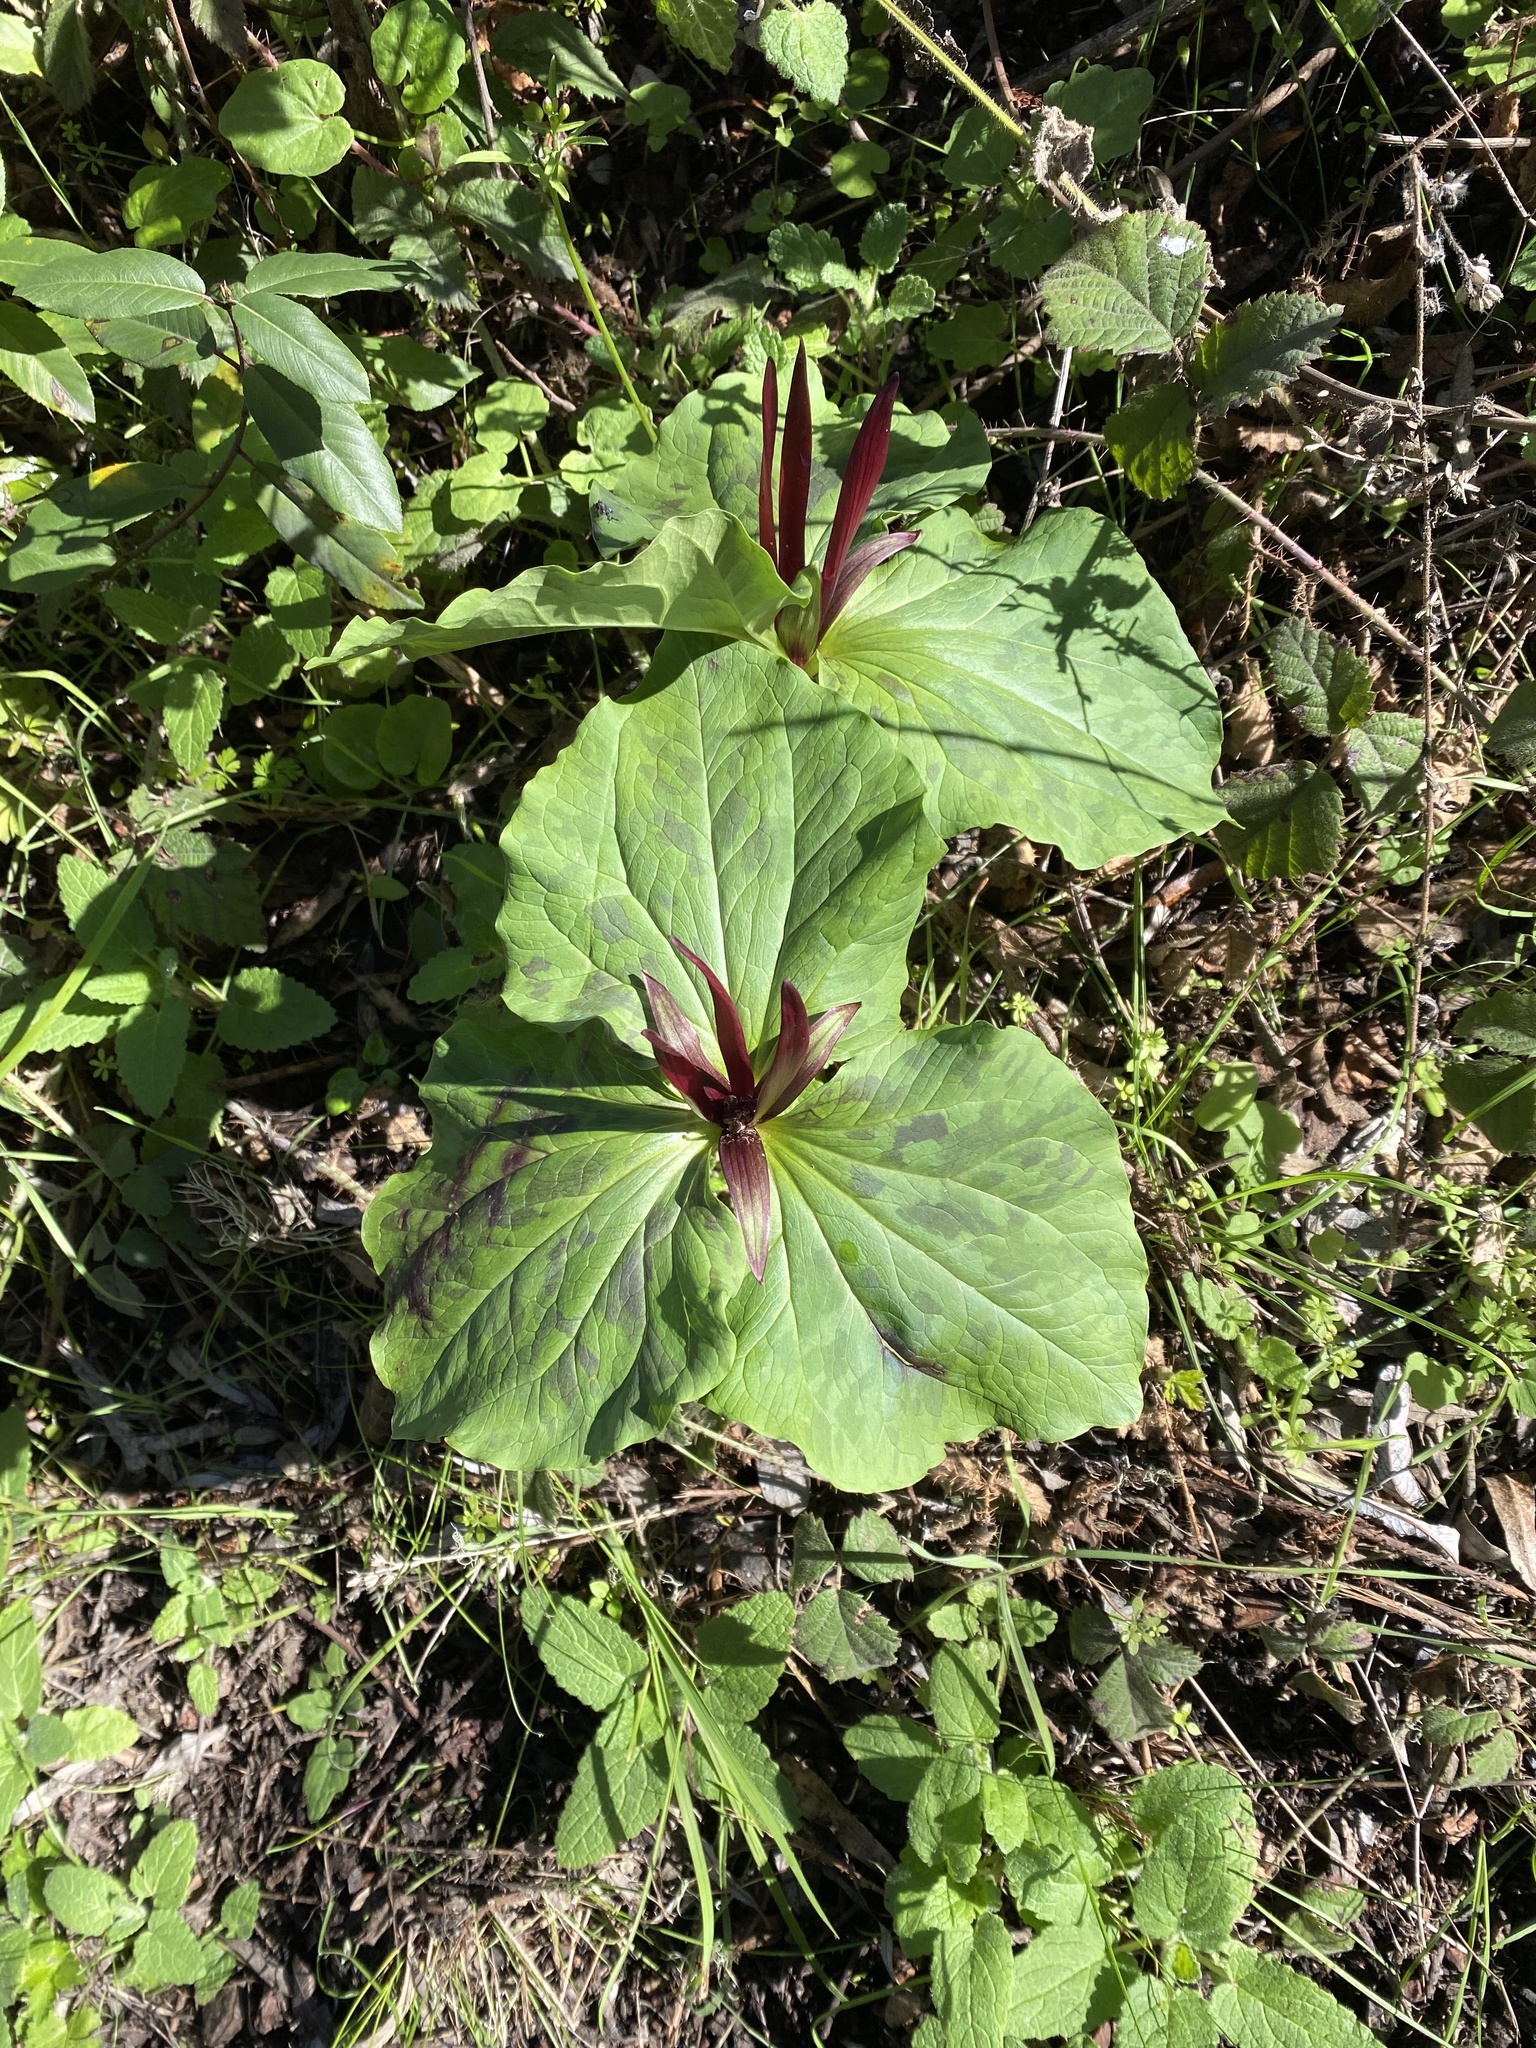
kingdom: Plantae
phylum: Tracheophyta
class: Liliopsida
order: Liliales
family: Melanthiaceae
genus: Trillium
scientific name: Trillium angustipetalum
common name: Narrow-petaled trillium
